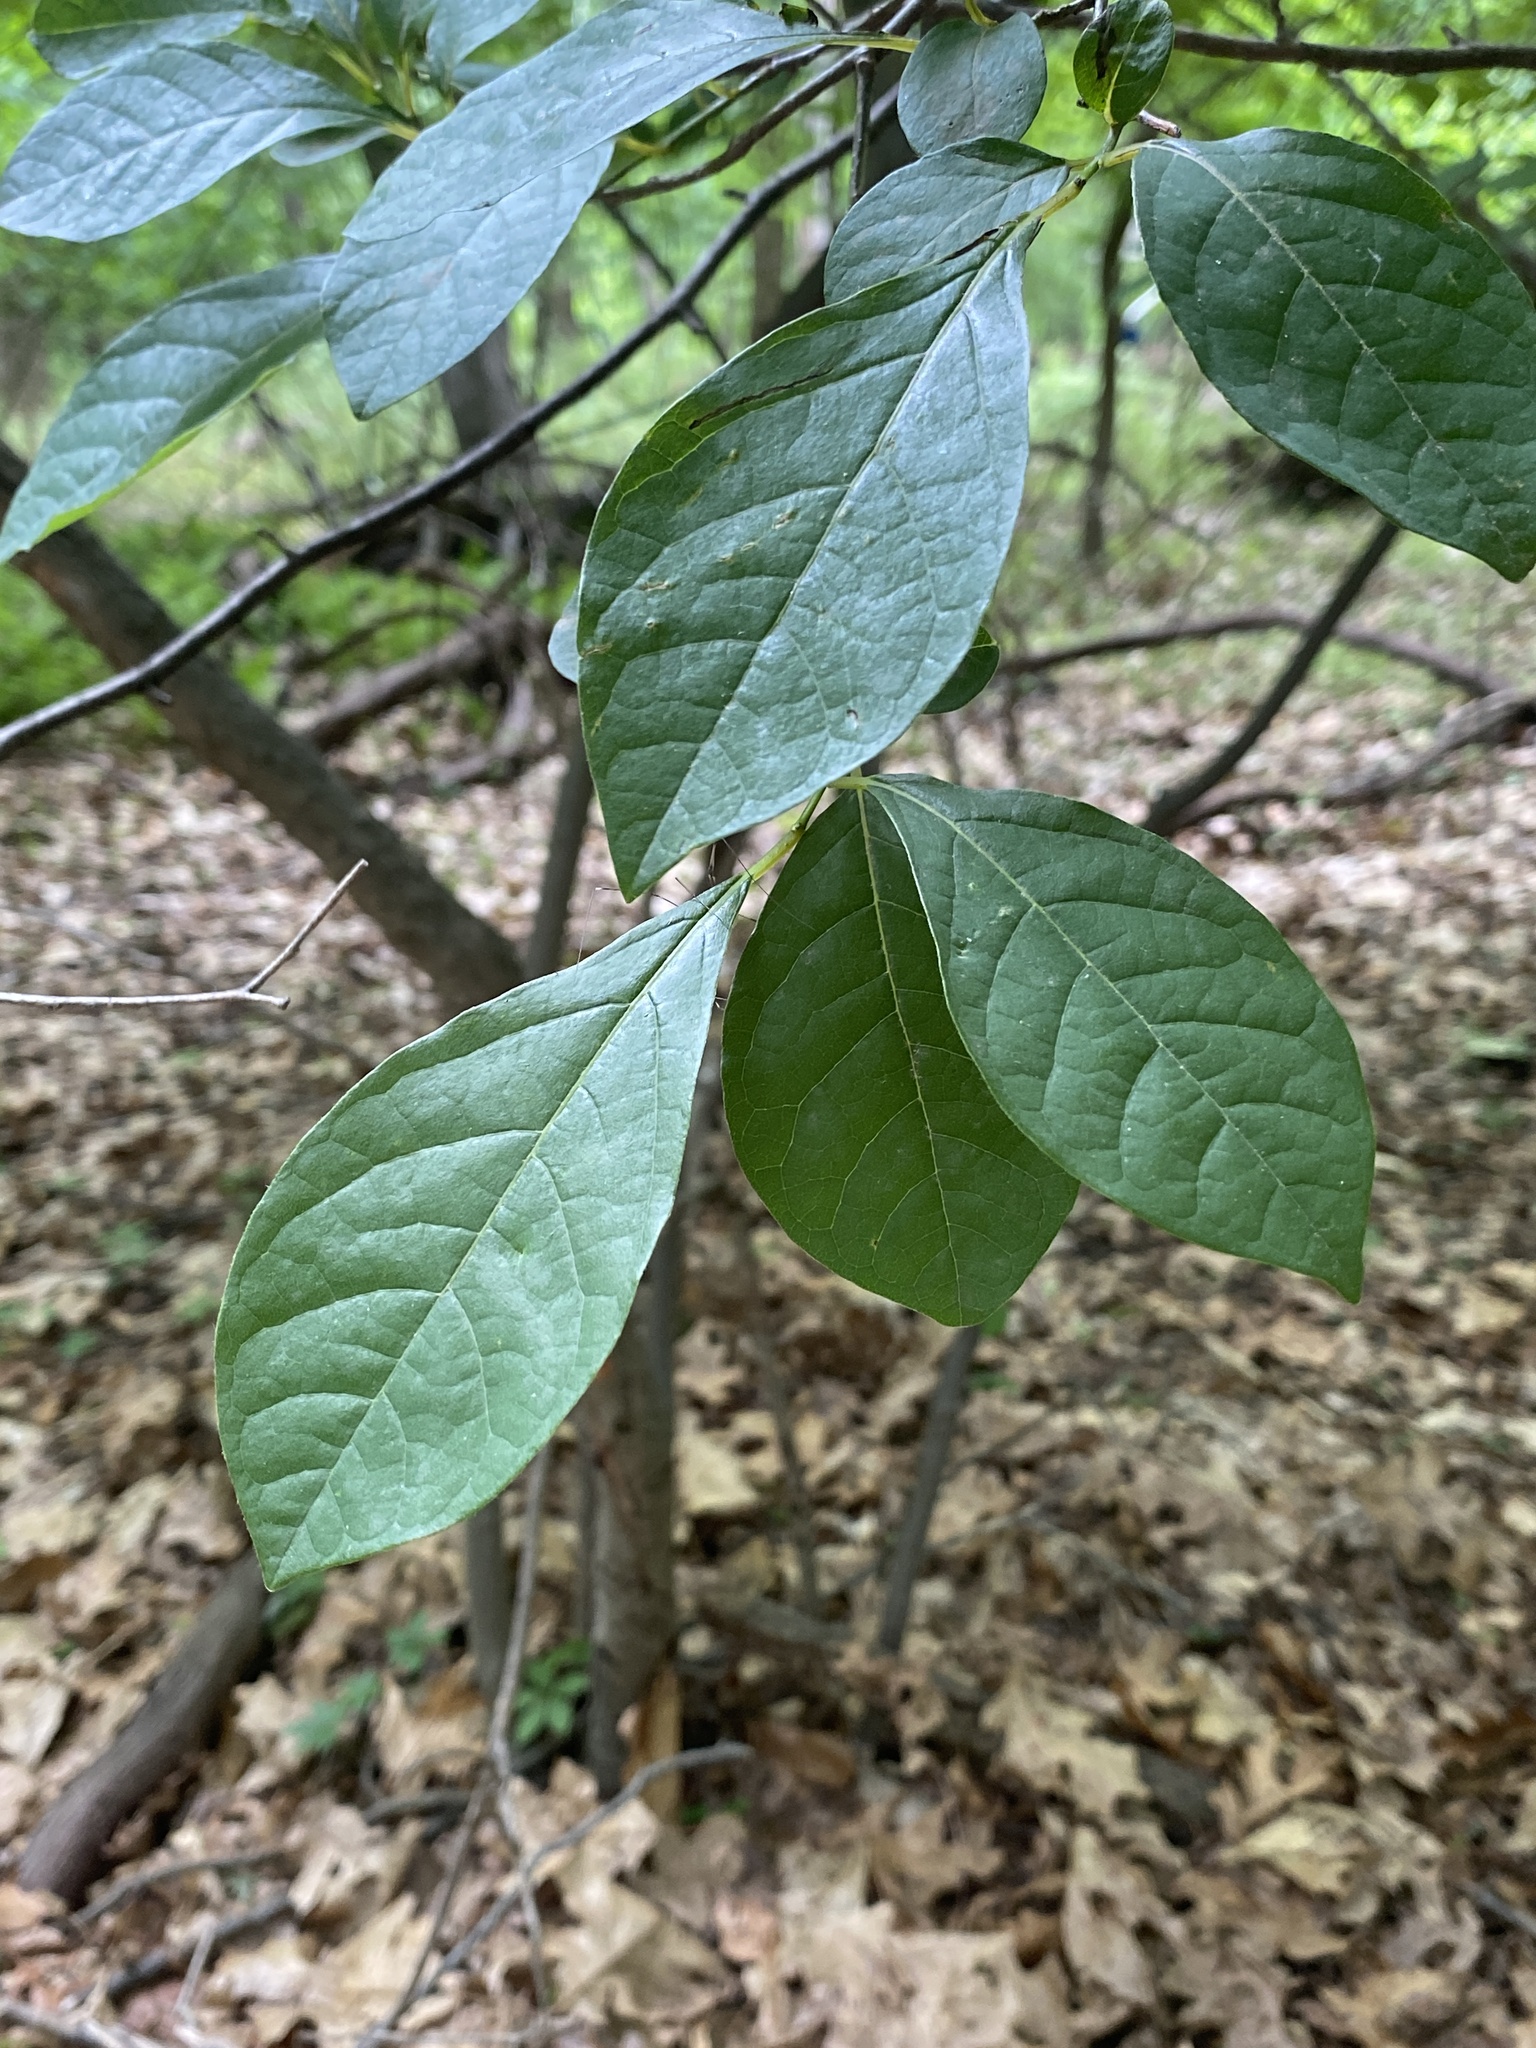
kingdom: Plantae
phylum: Tracheophyta
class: Magnoliopsida
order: Laurales
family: Lauraceae
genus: Lindera
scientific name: Lindera benzoin
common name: Spicebush
